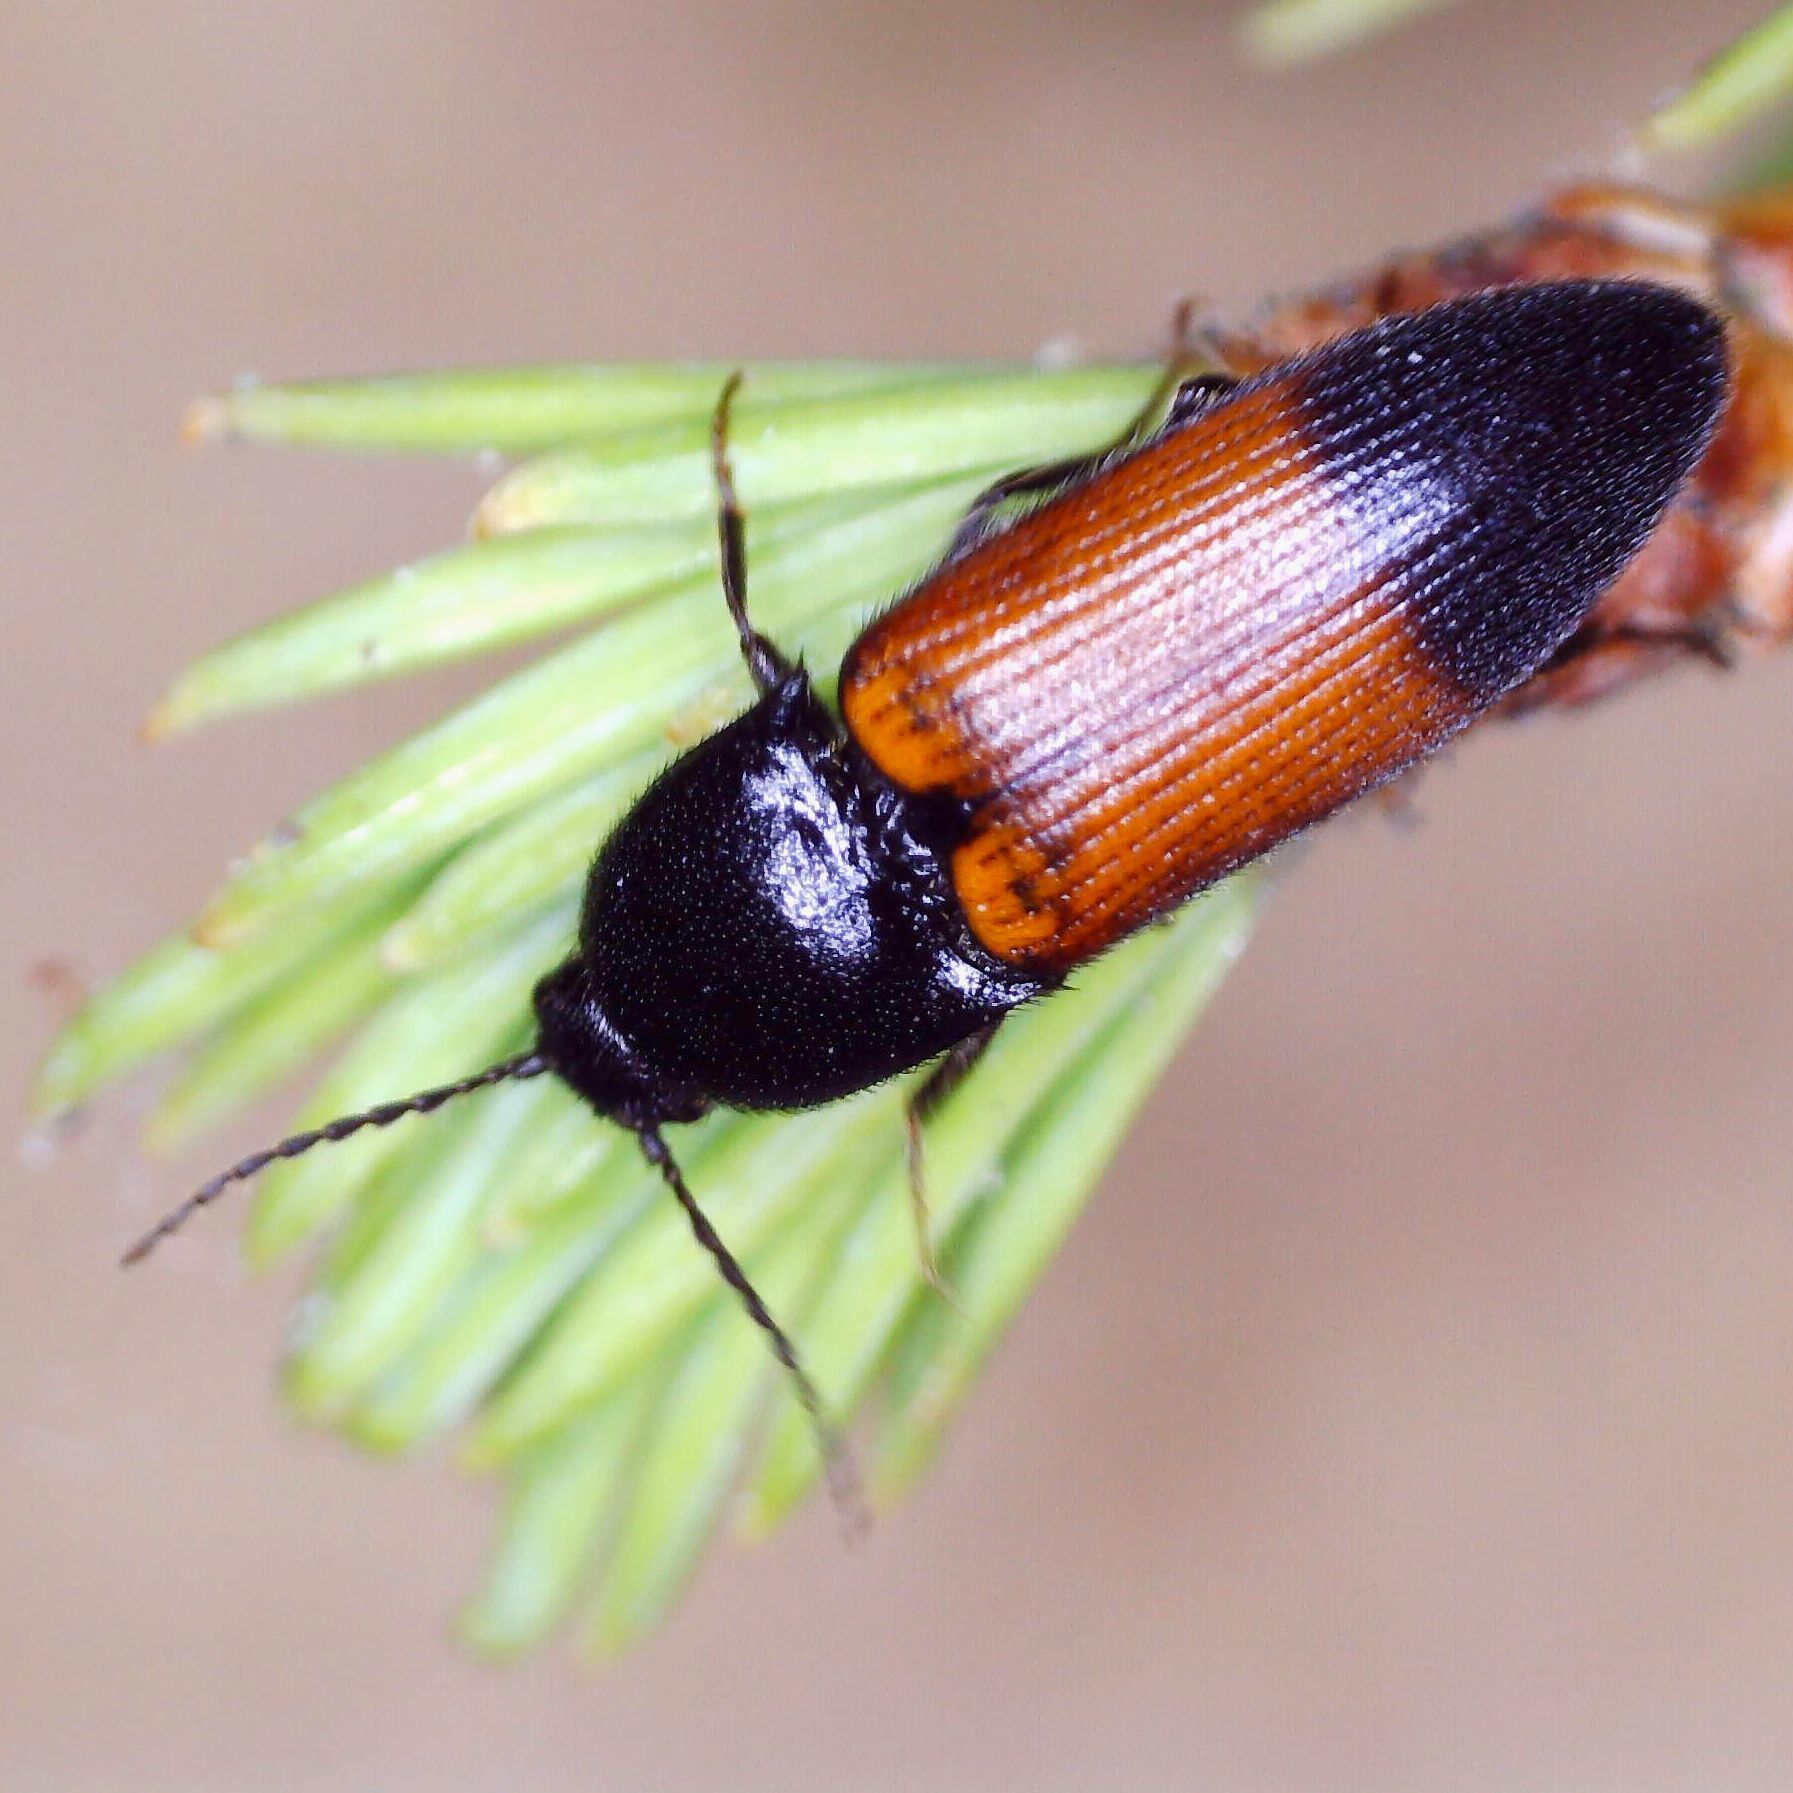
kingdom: Animalia
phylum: Arthropoda
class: Insecta
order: Coleoptera
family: Elateridae
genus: Ampedus
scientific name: Ampedus balteatus
